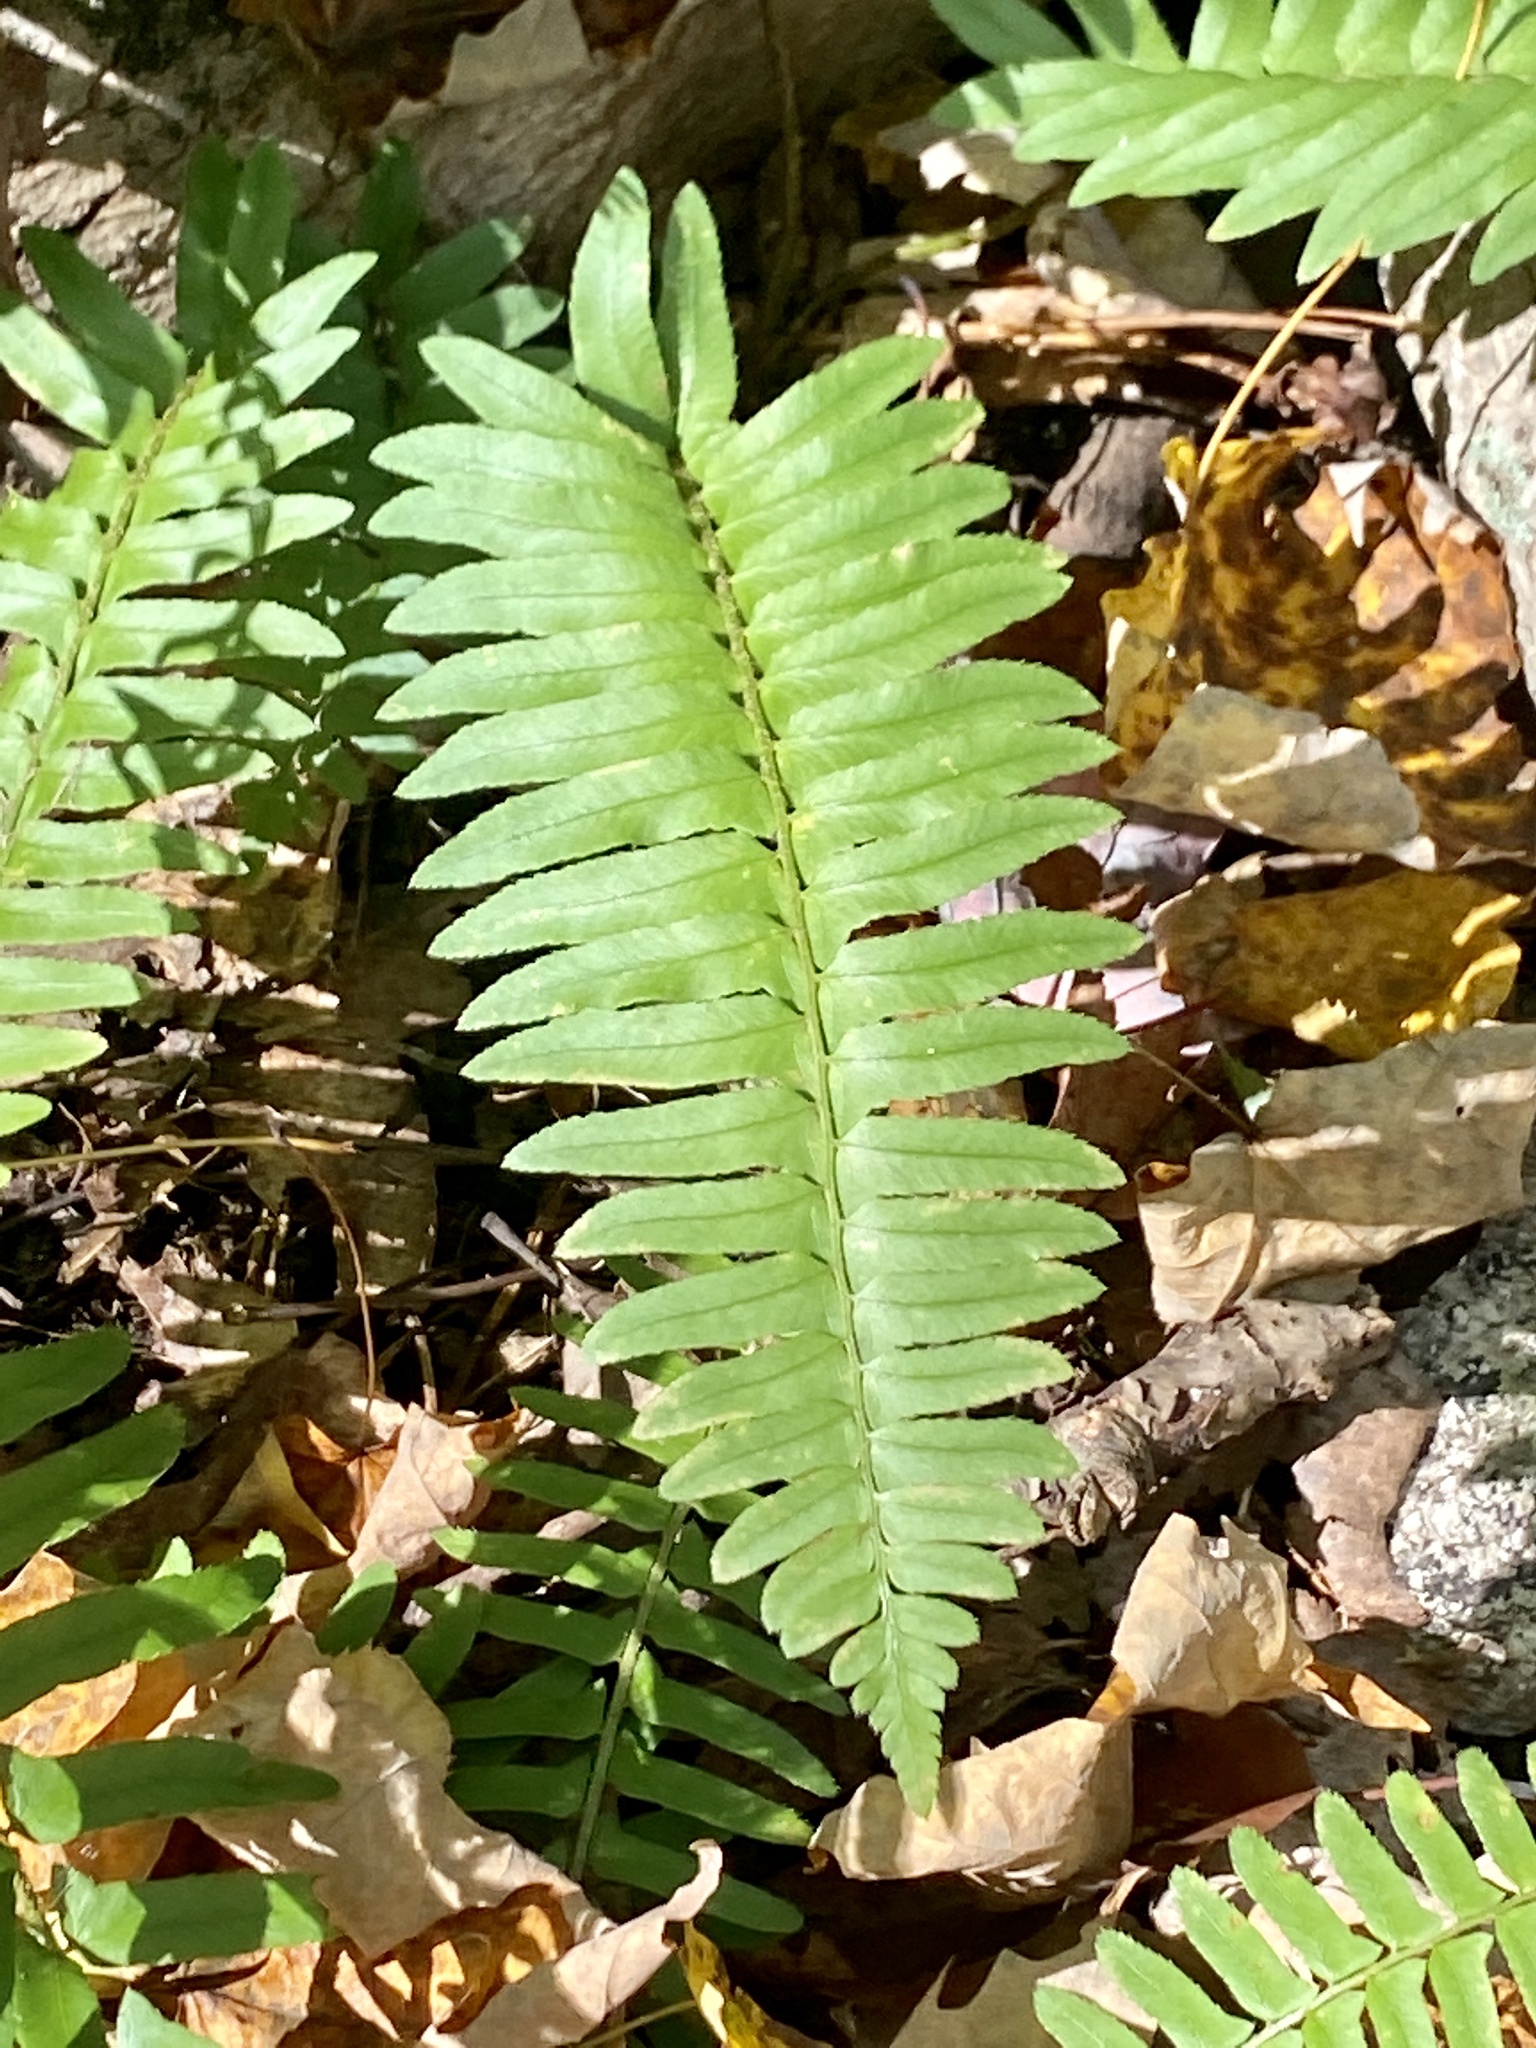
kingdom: Plantae
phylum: Tracheophyta
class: Polypodiopsida
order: Polypodiales
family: Dryopteridaceae
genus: Polystichum
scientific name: Polystichum acrostichoides
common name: Christmas fern
